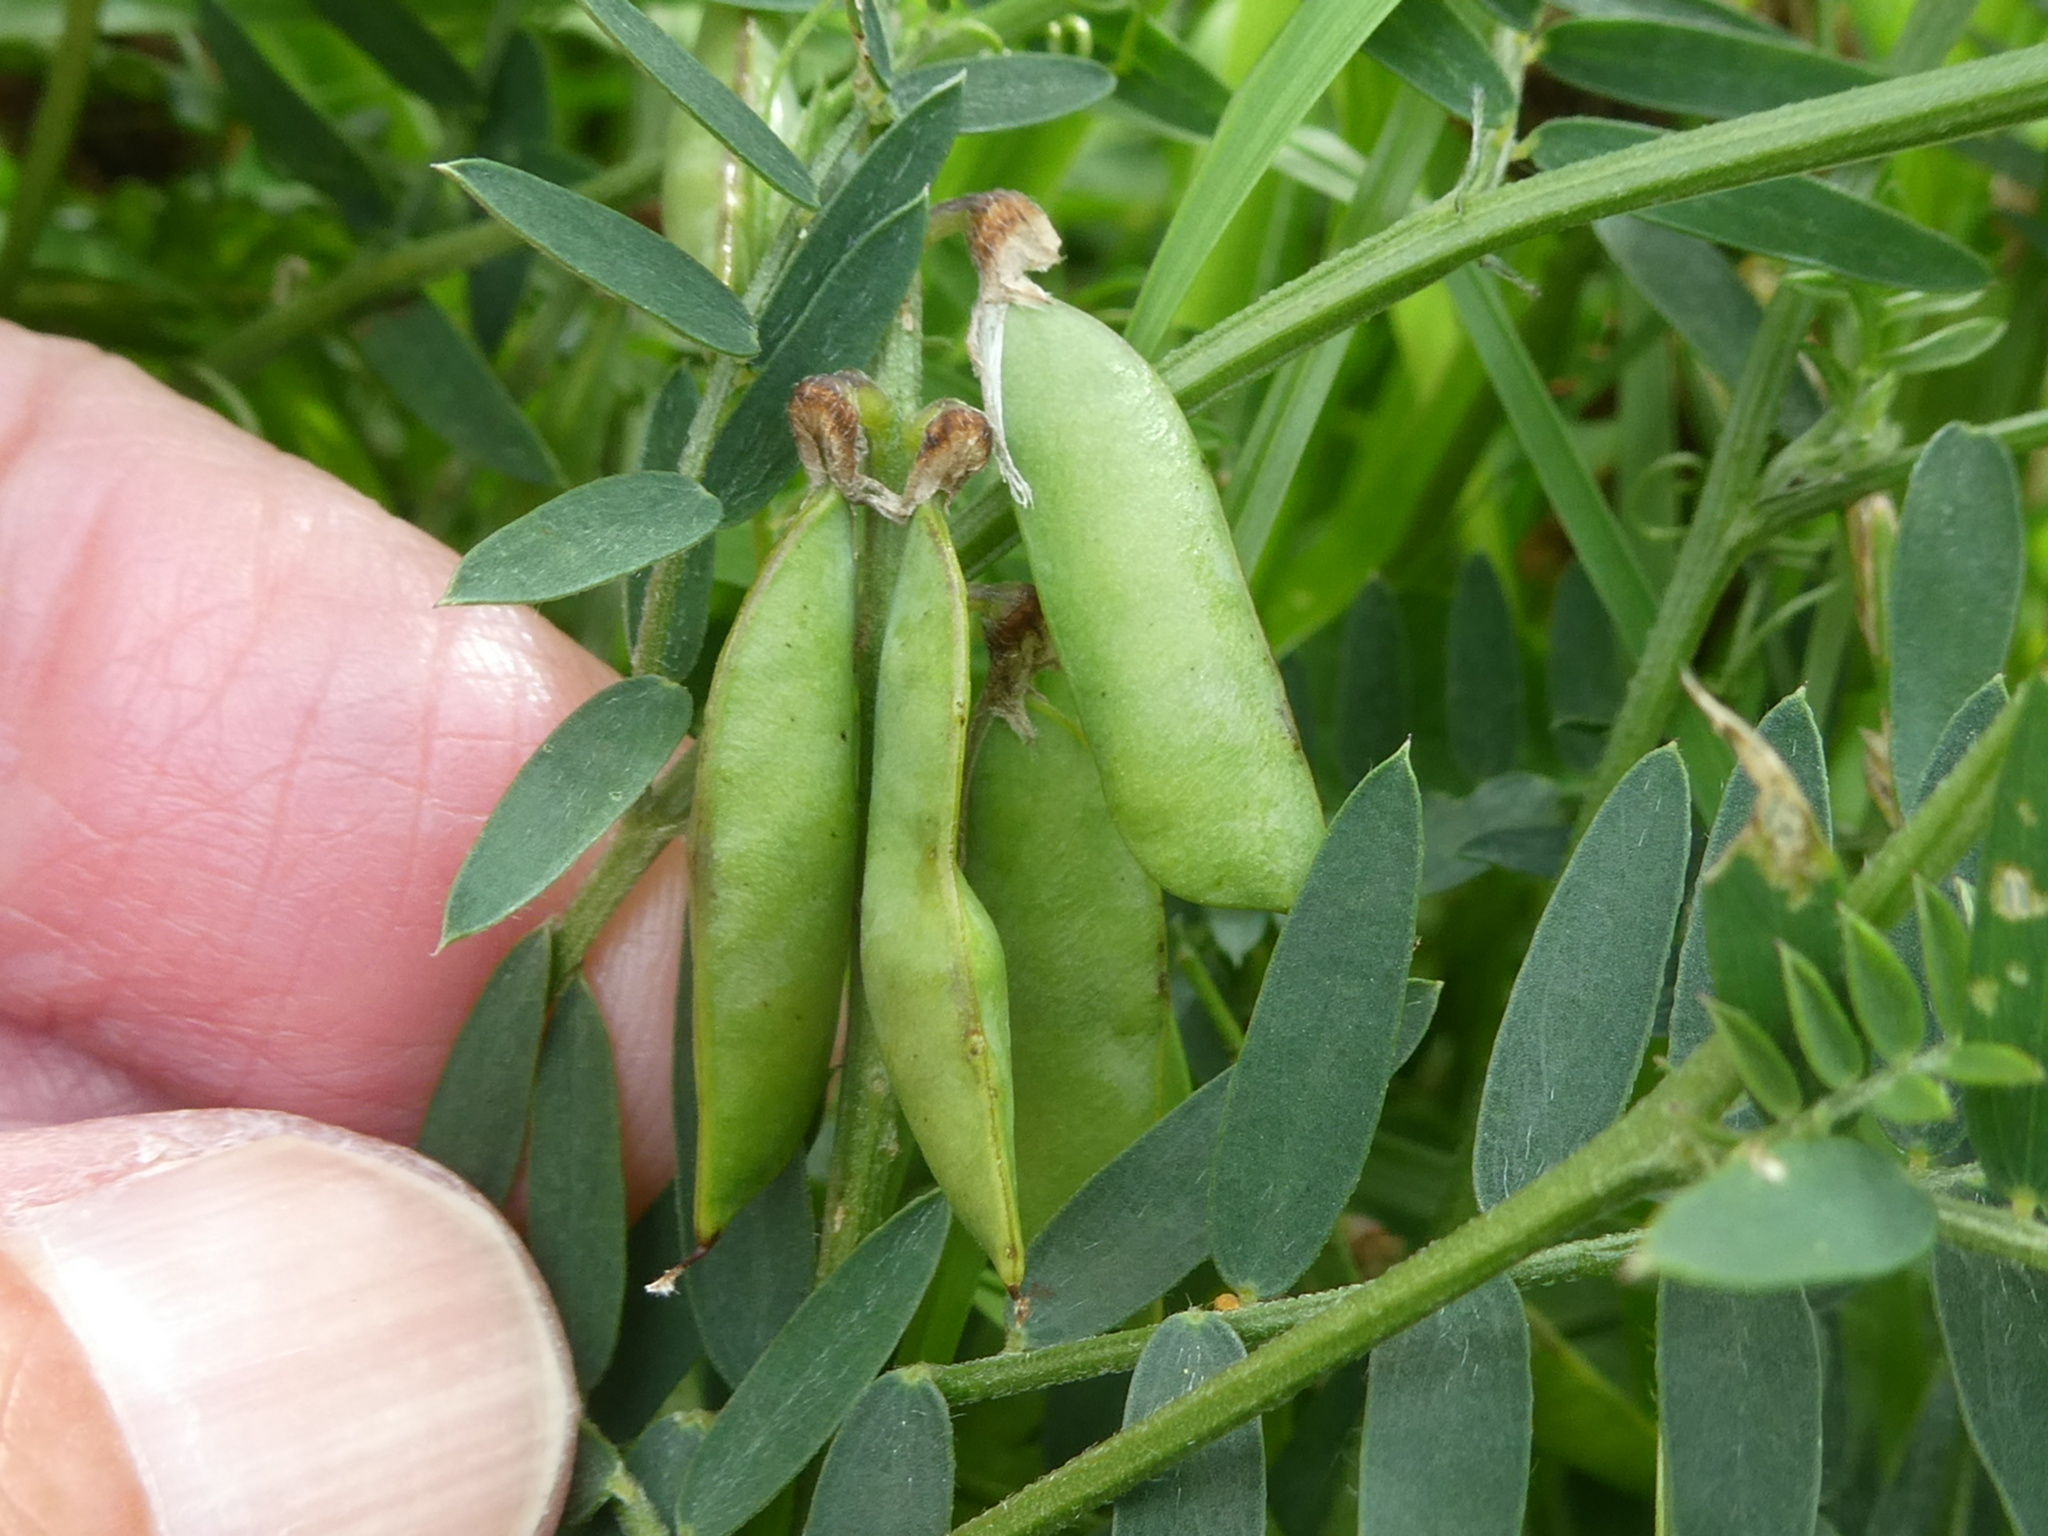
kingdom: Plantae
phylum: Tracheophyta
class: Magnoliopsida
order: Fabales
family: Fabaceae
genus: Vicia
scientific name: Vicia cracca
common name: Bird vetch
